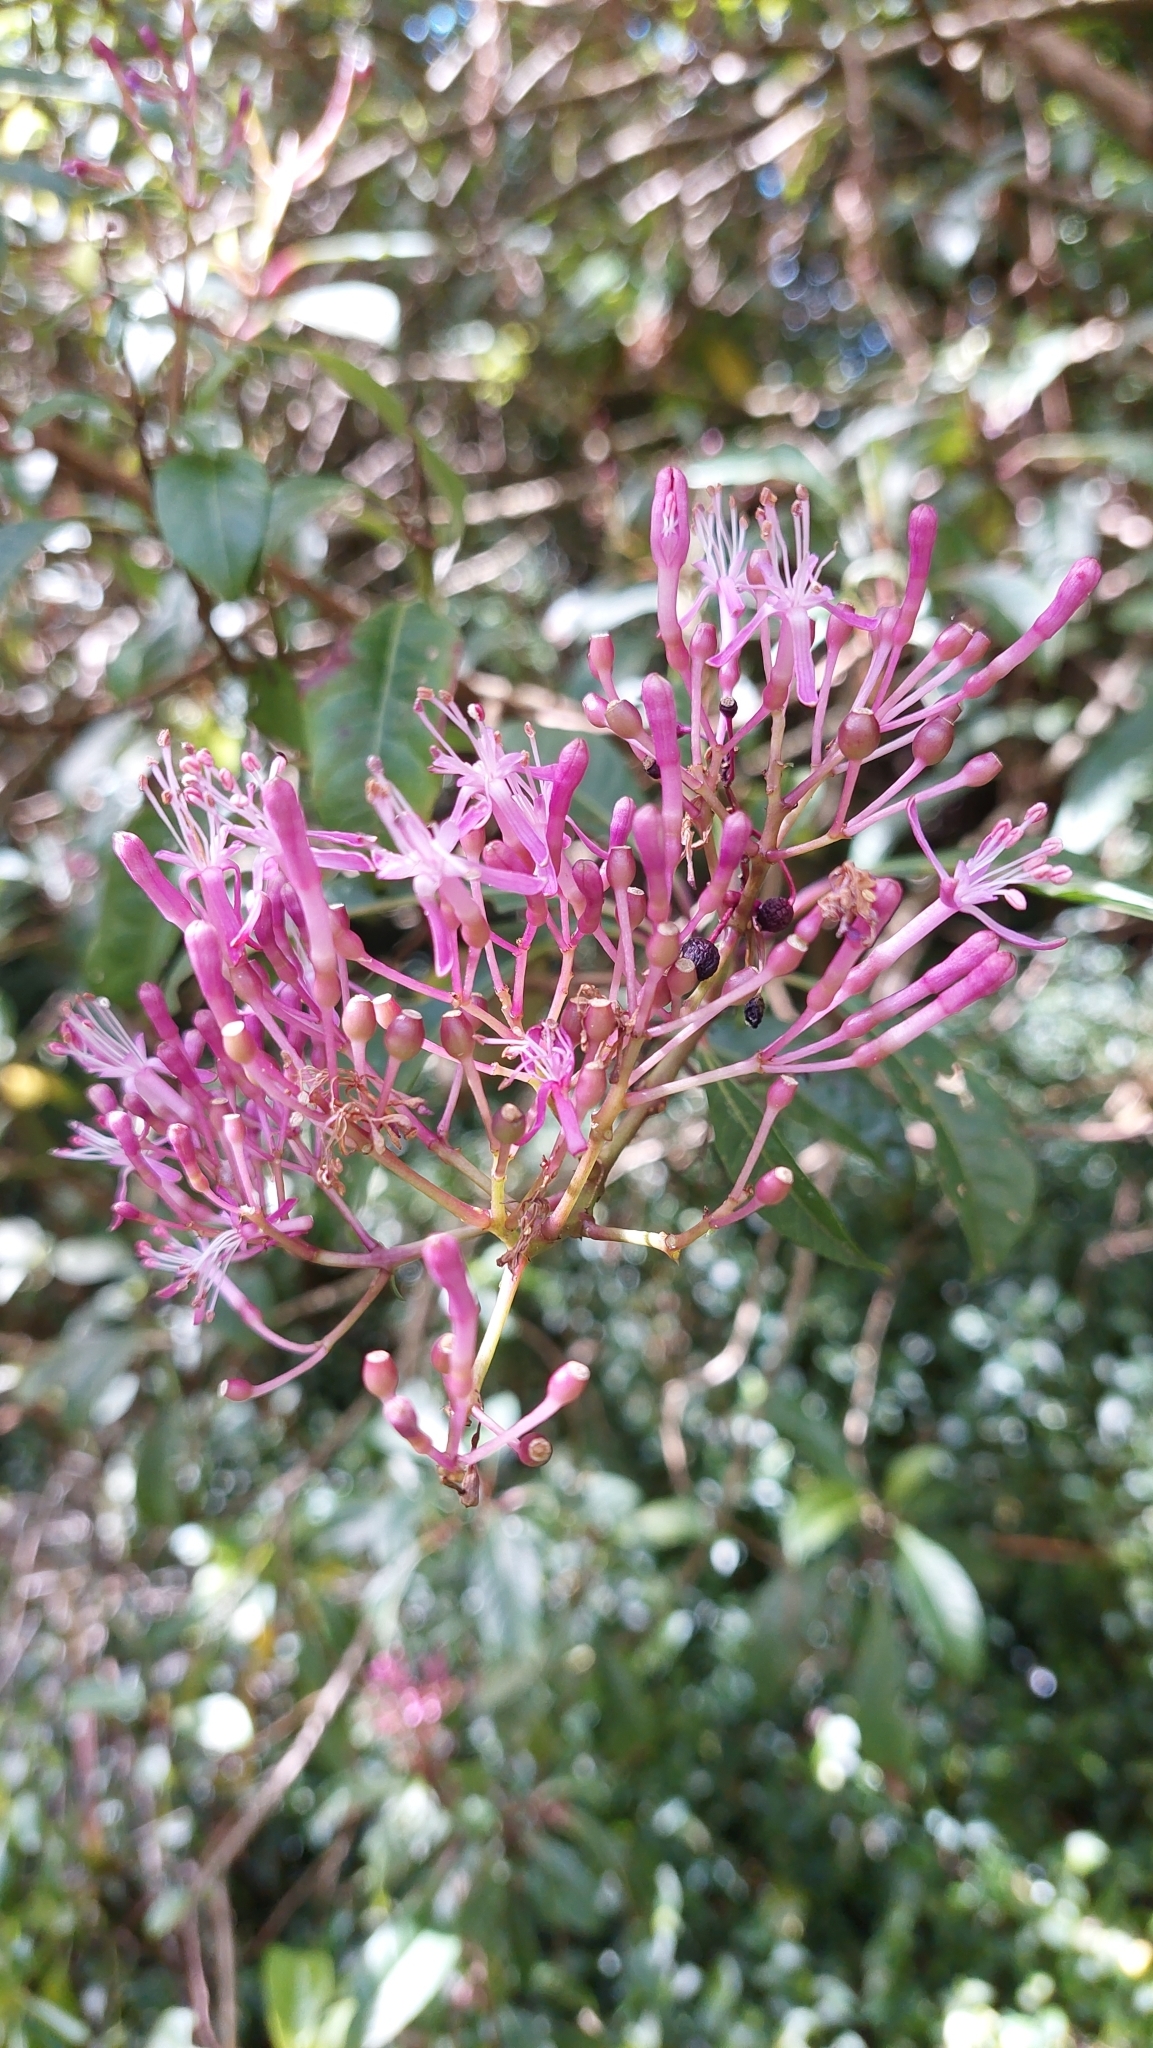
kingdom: Plantae
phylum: Tracheophyta
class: Magnoliopsida
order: Myrtales
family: Onagraceae
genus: Fuchsia
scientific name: Fuchsia paniculata
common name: Shrubby fuchsia
